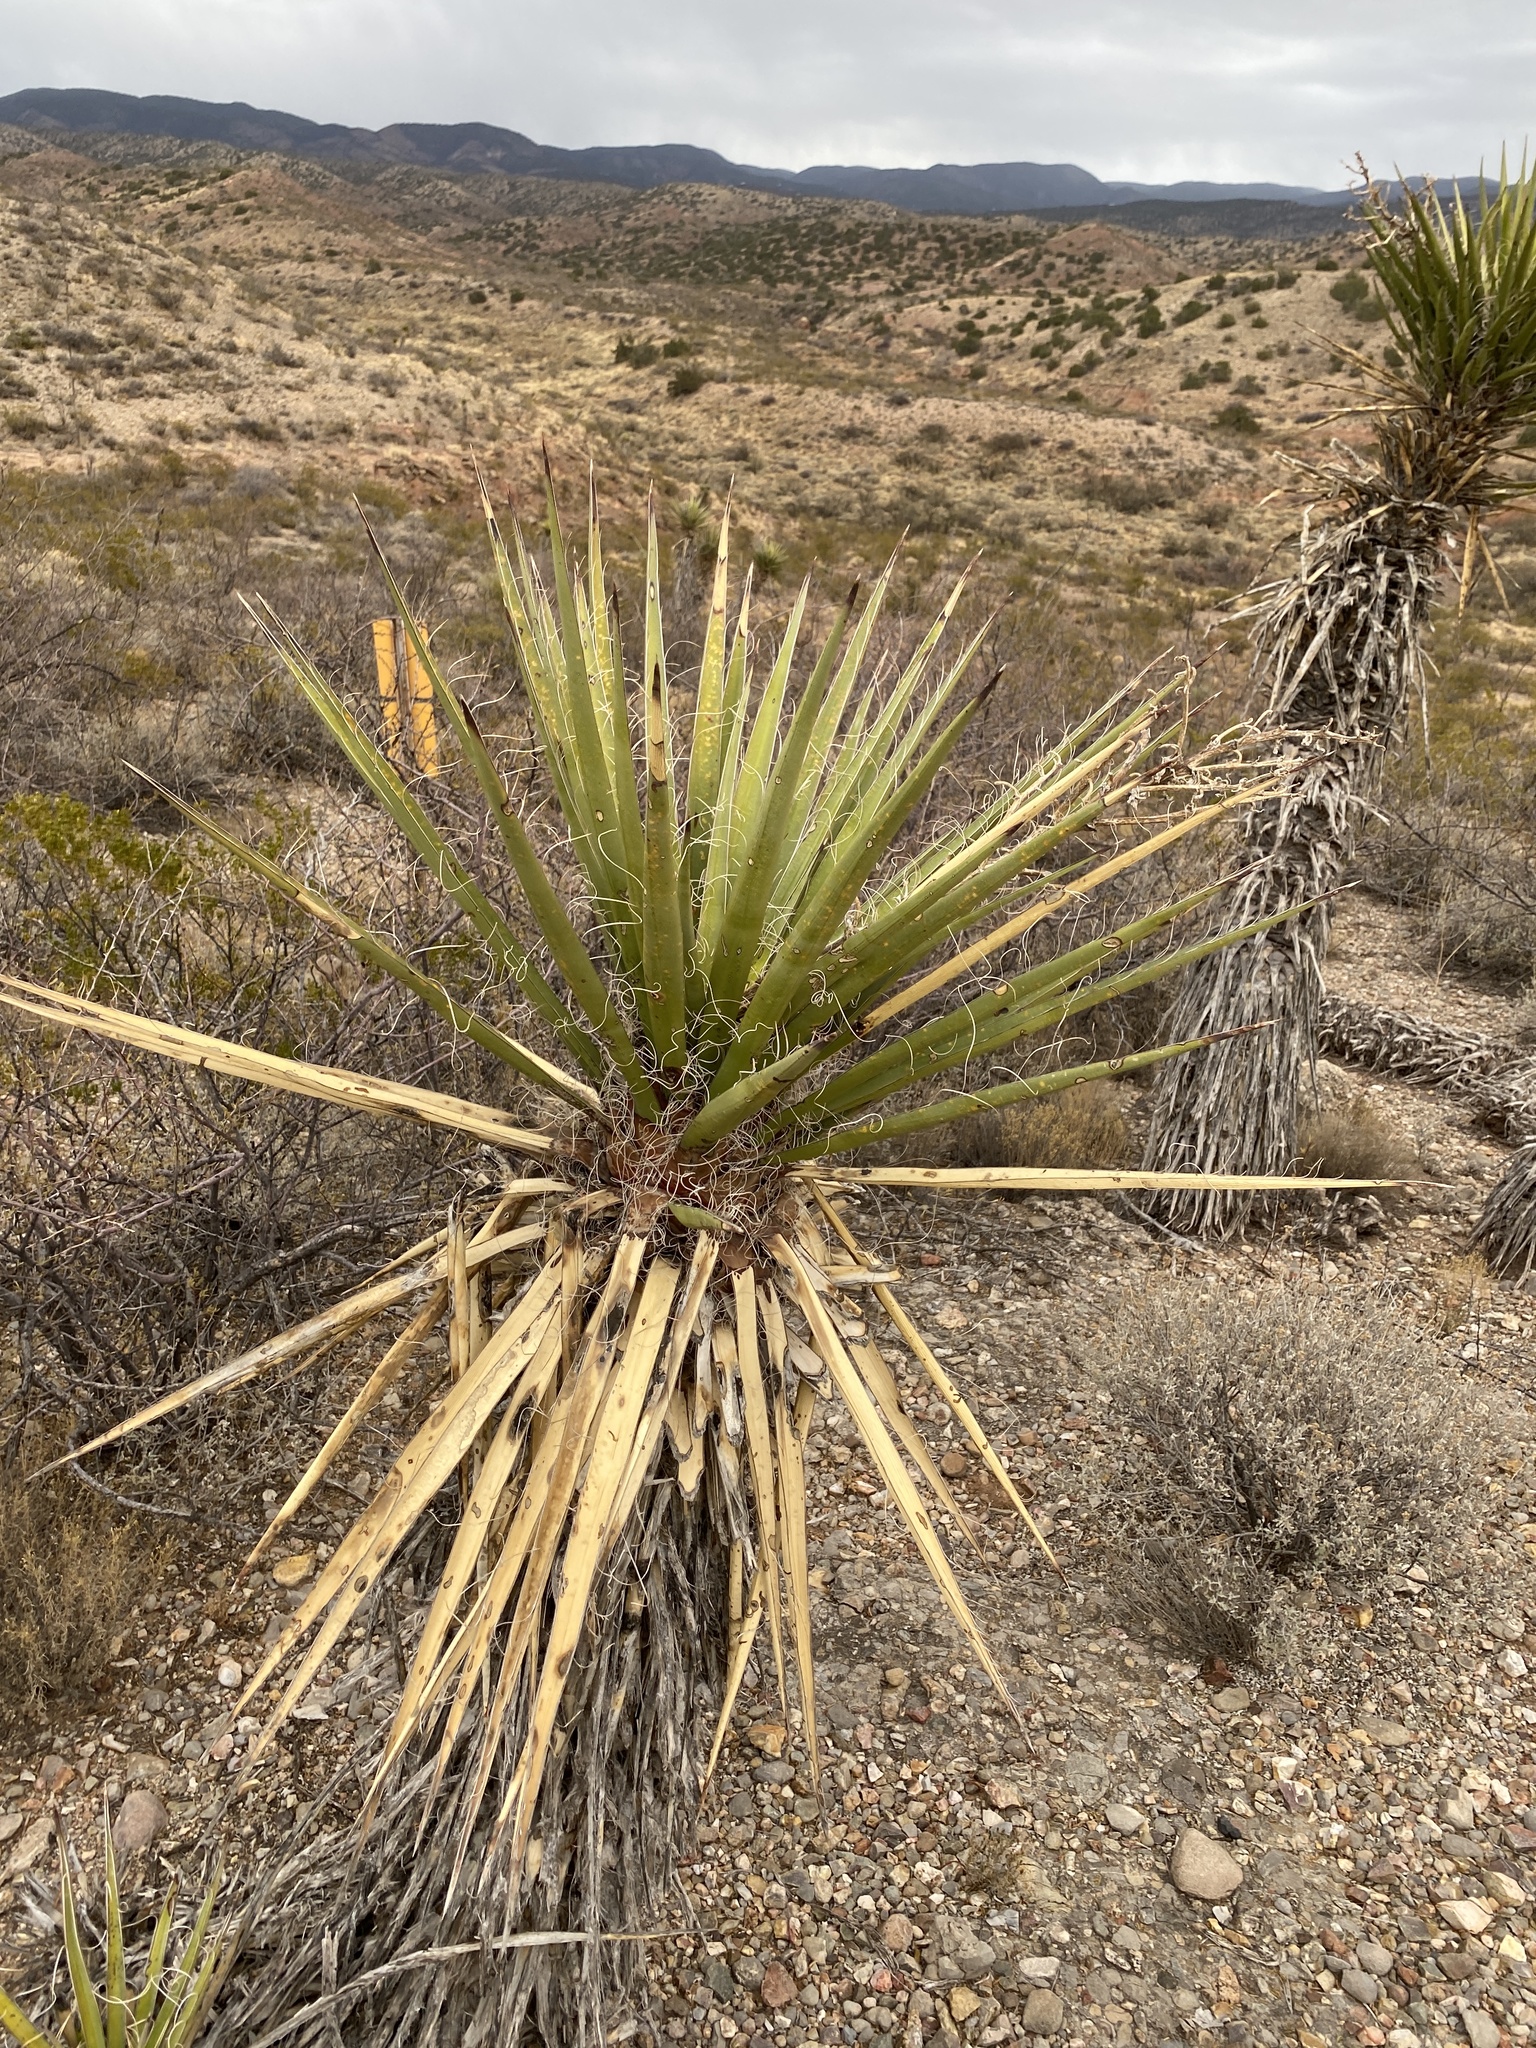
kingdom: Plantae
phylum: Tracheophyta
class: Liliopsida
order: Asparagales
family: Asparagaceae
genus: Yucca
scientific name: Yucca treculiana
